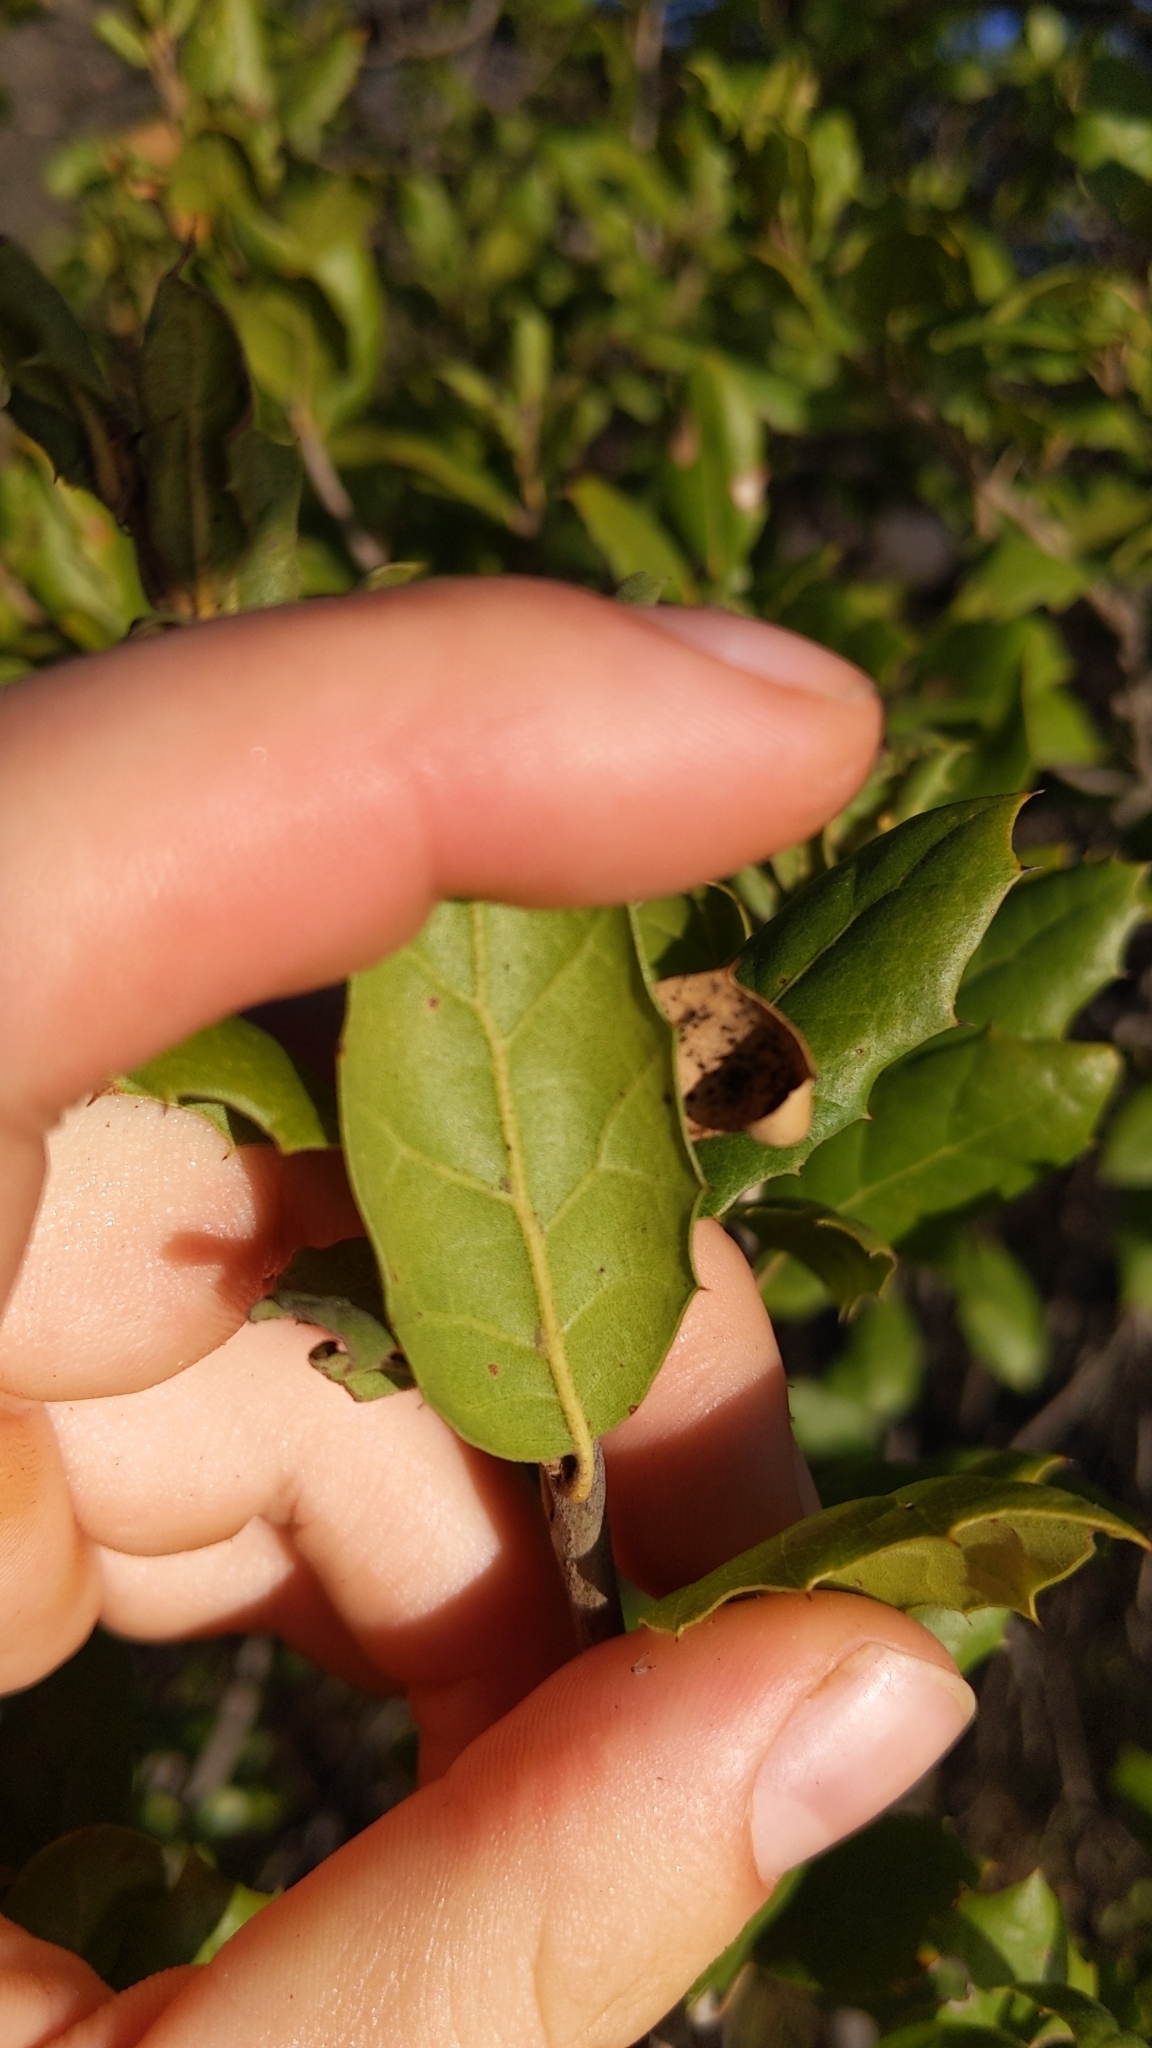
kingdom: Plantae
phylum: Tracheophyta
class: Magnoliopsida
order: Fagales
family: Fagaceae
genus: Quercus
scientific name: Quercus agrifolia
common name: California live oak
